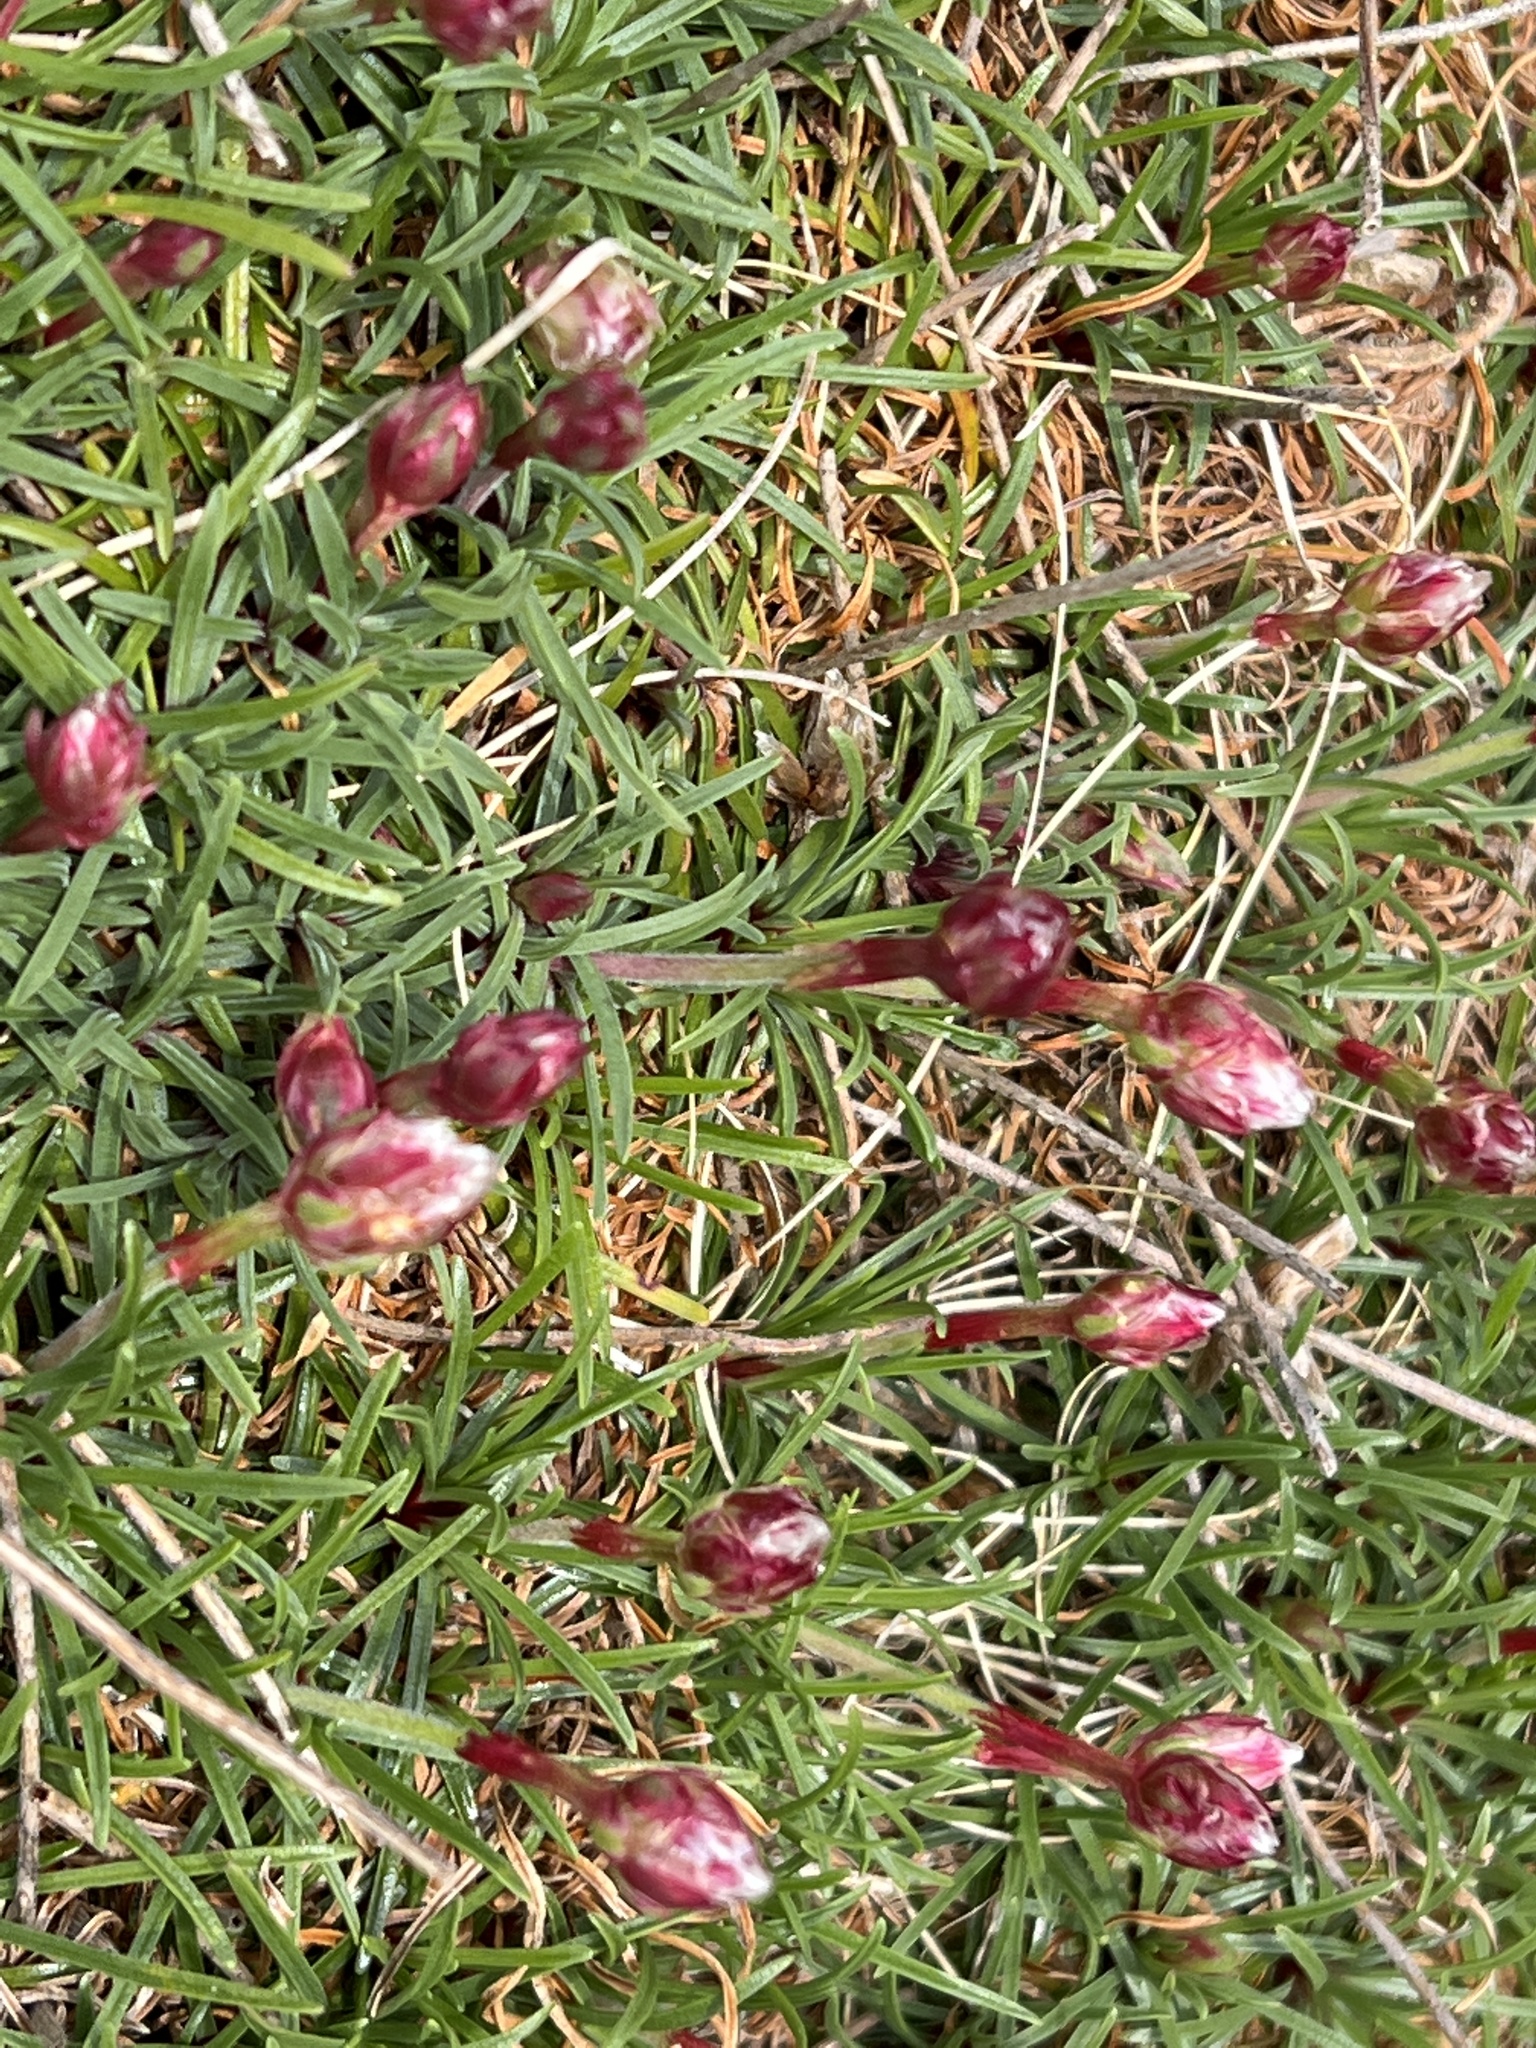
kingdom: Plantae
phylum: Tracheophyta
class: Magnoliopsida
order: Caryophyllales
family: Plumbaginaceae
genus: Armeria
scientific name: Armeria maritima
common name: Thrift
